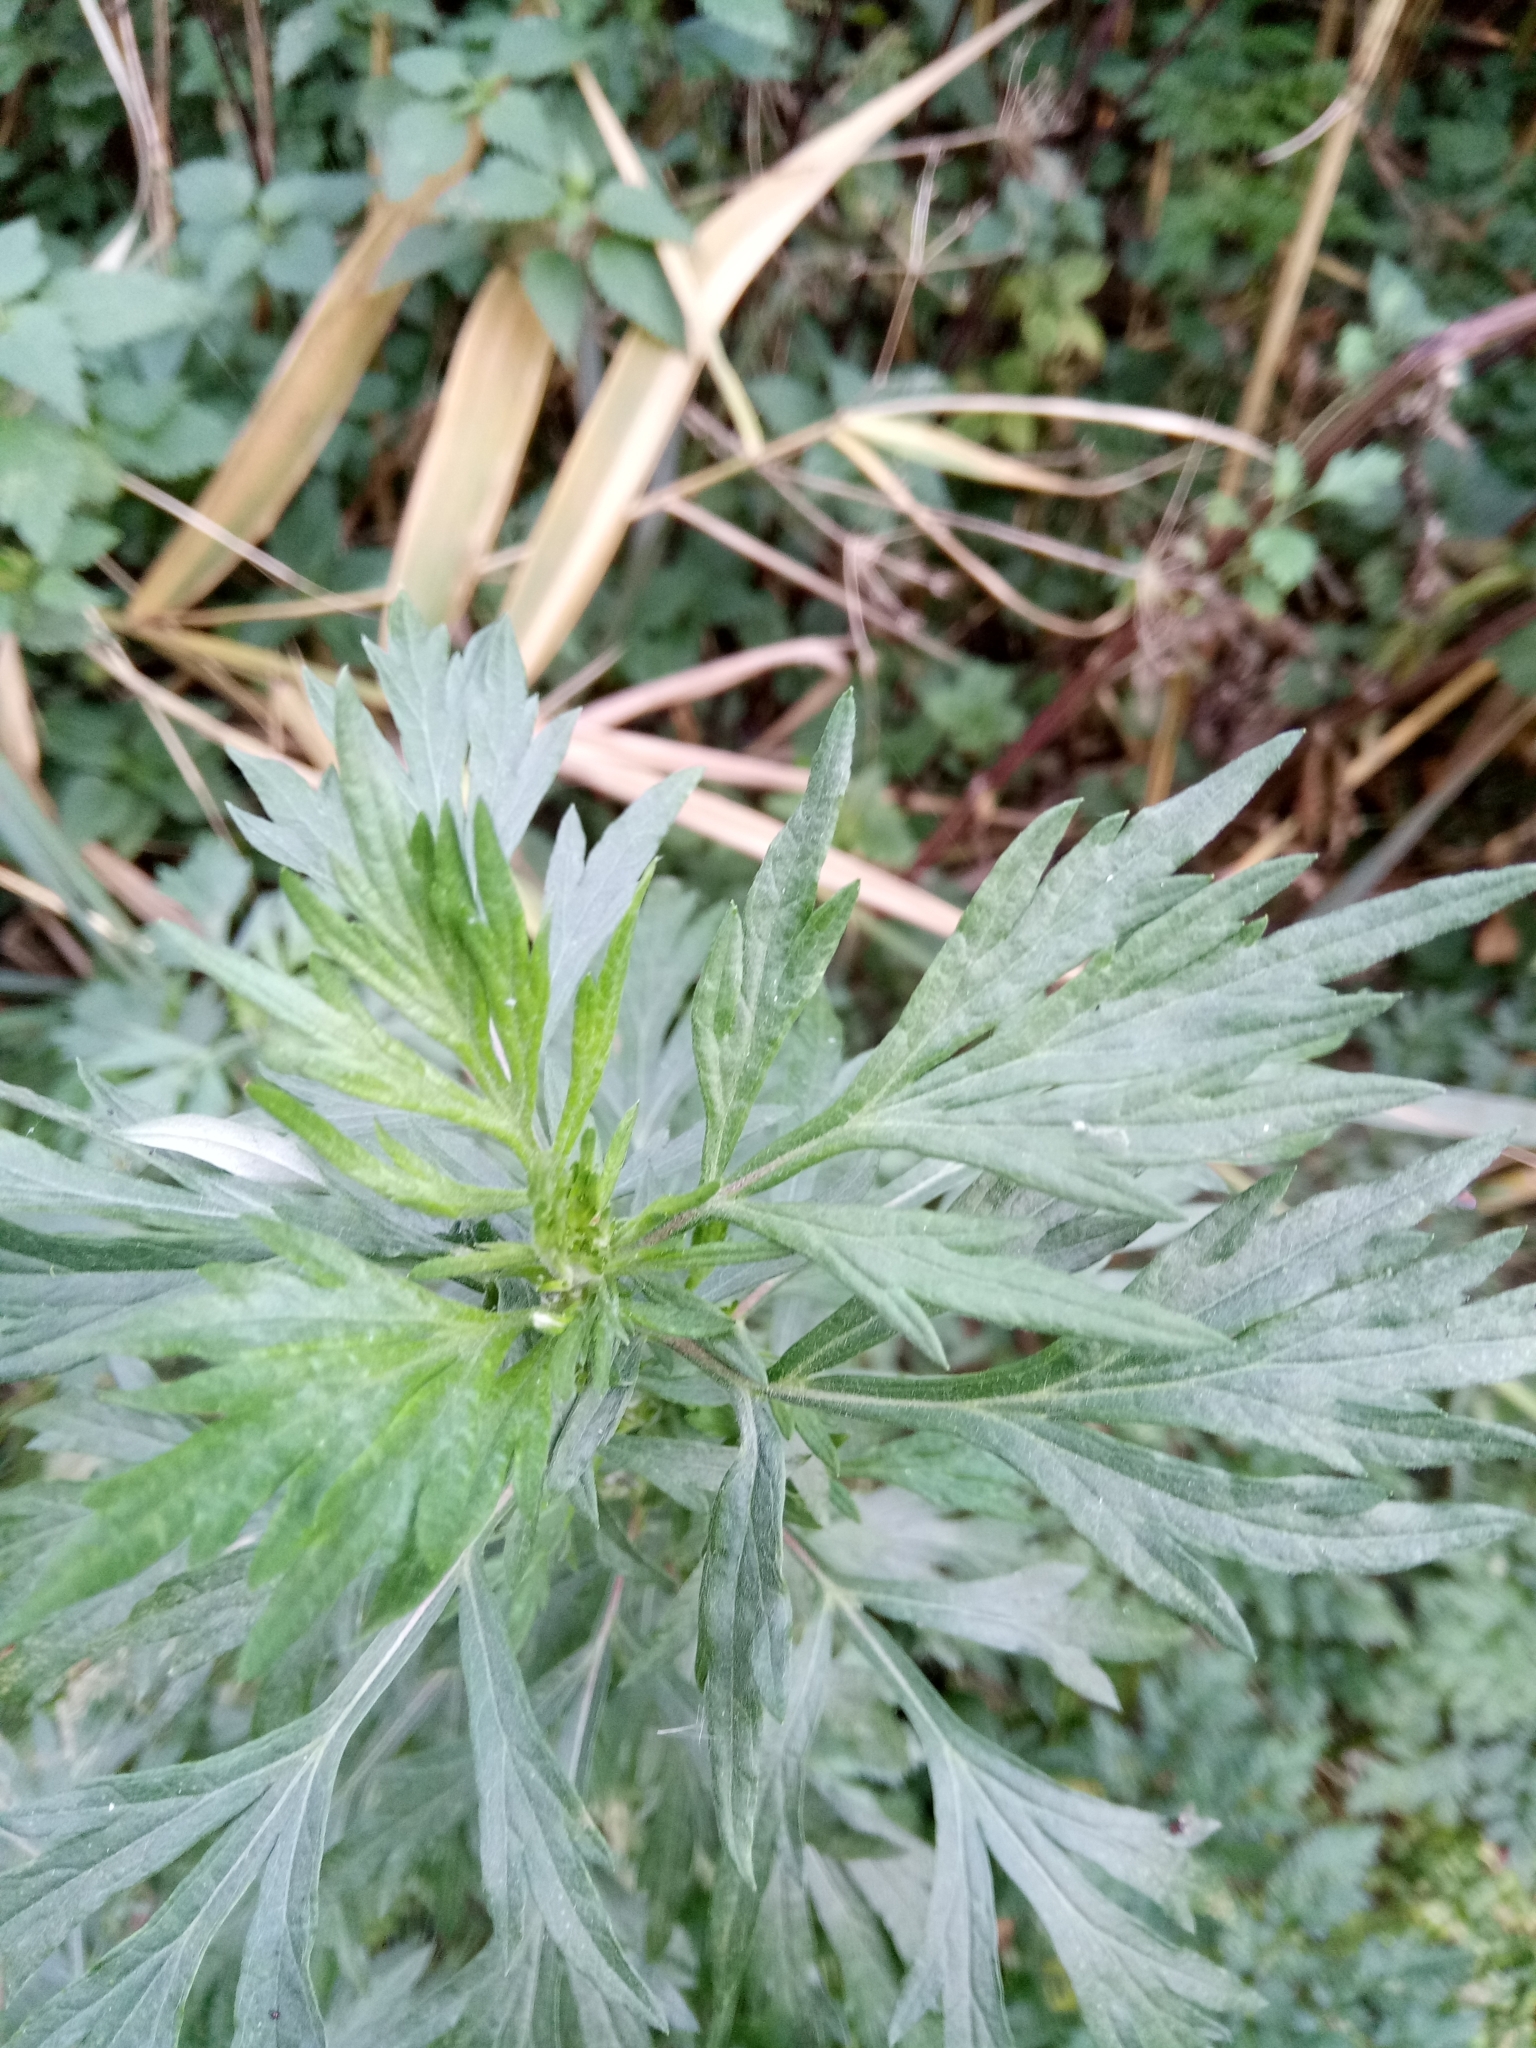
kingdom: Plantae
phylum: Tracheophyta
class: Magnoliopsida
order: Asterales
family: Asteraceae
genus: Artemisia
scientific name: Artemisia vulgaris
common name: Mugwort
